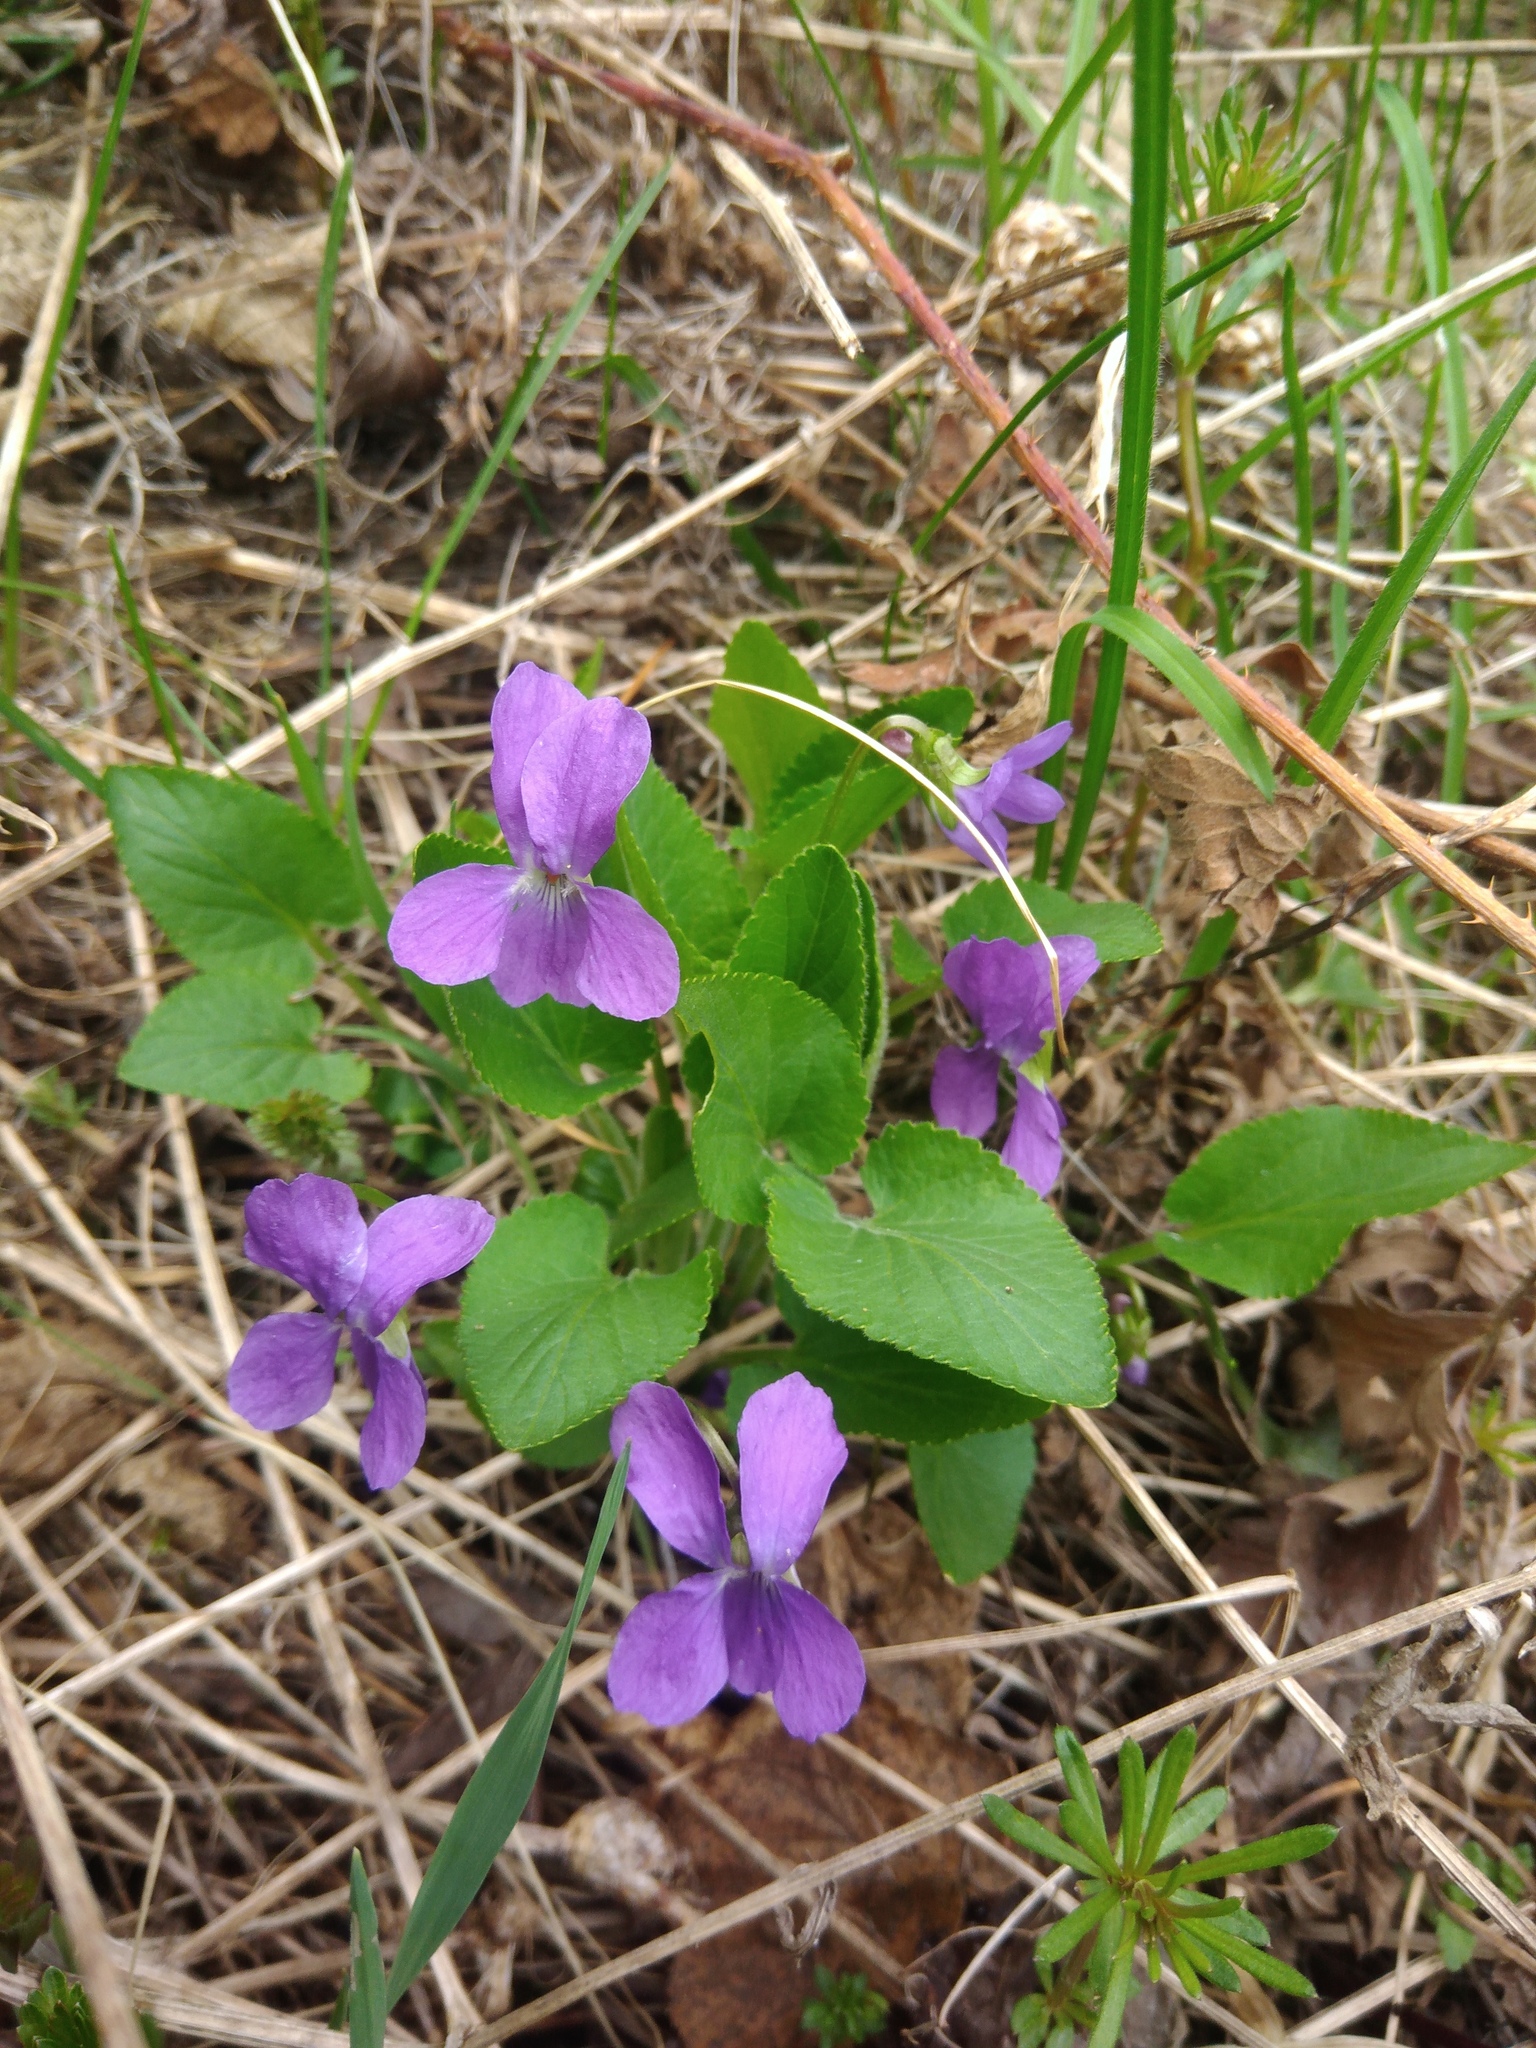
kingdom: Plantae
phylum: Tracheophyta
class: Magnoliopsida
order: Malpighiales
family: Violaceae
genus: Viola
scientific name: Viola hirta
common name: Hairy violet
